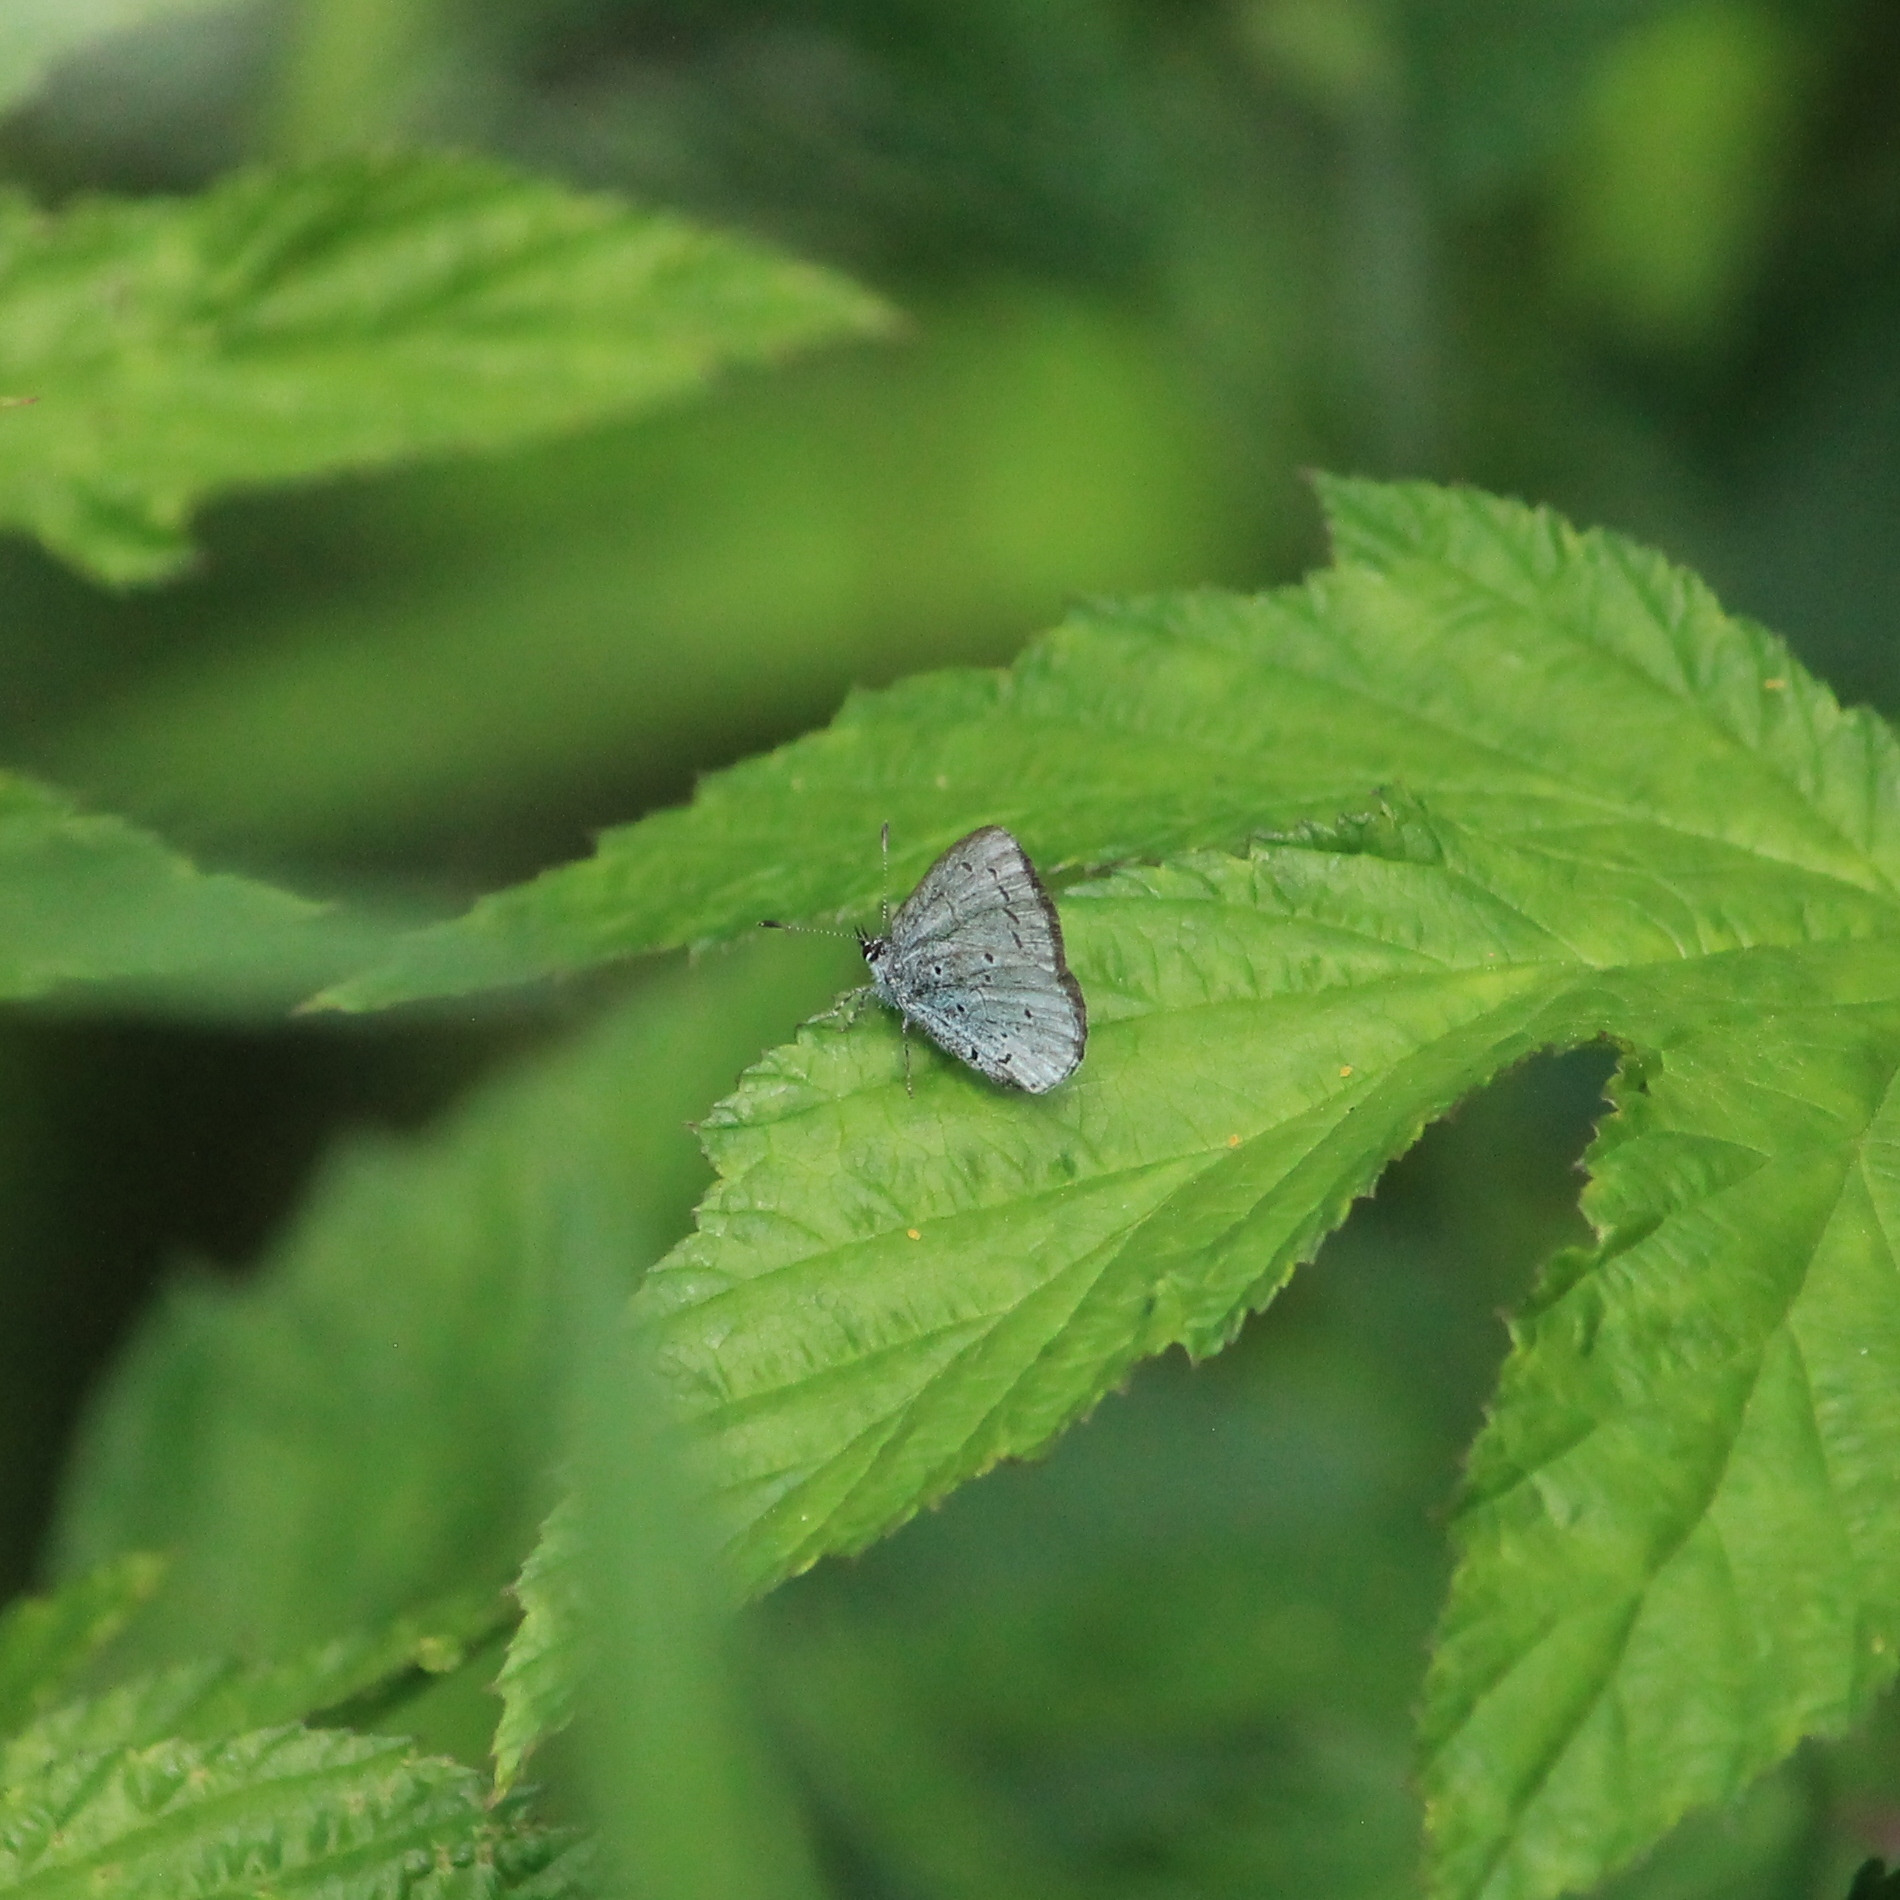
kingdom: Animalia
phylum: Arthropoda
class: Insecta
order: Lepidoptera
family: Lycaenidae
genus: Celastrina
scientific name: Celastrina argiolus
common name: Holly blue
